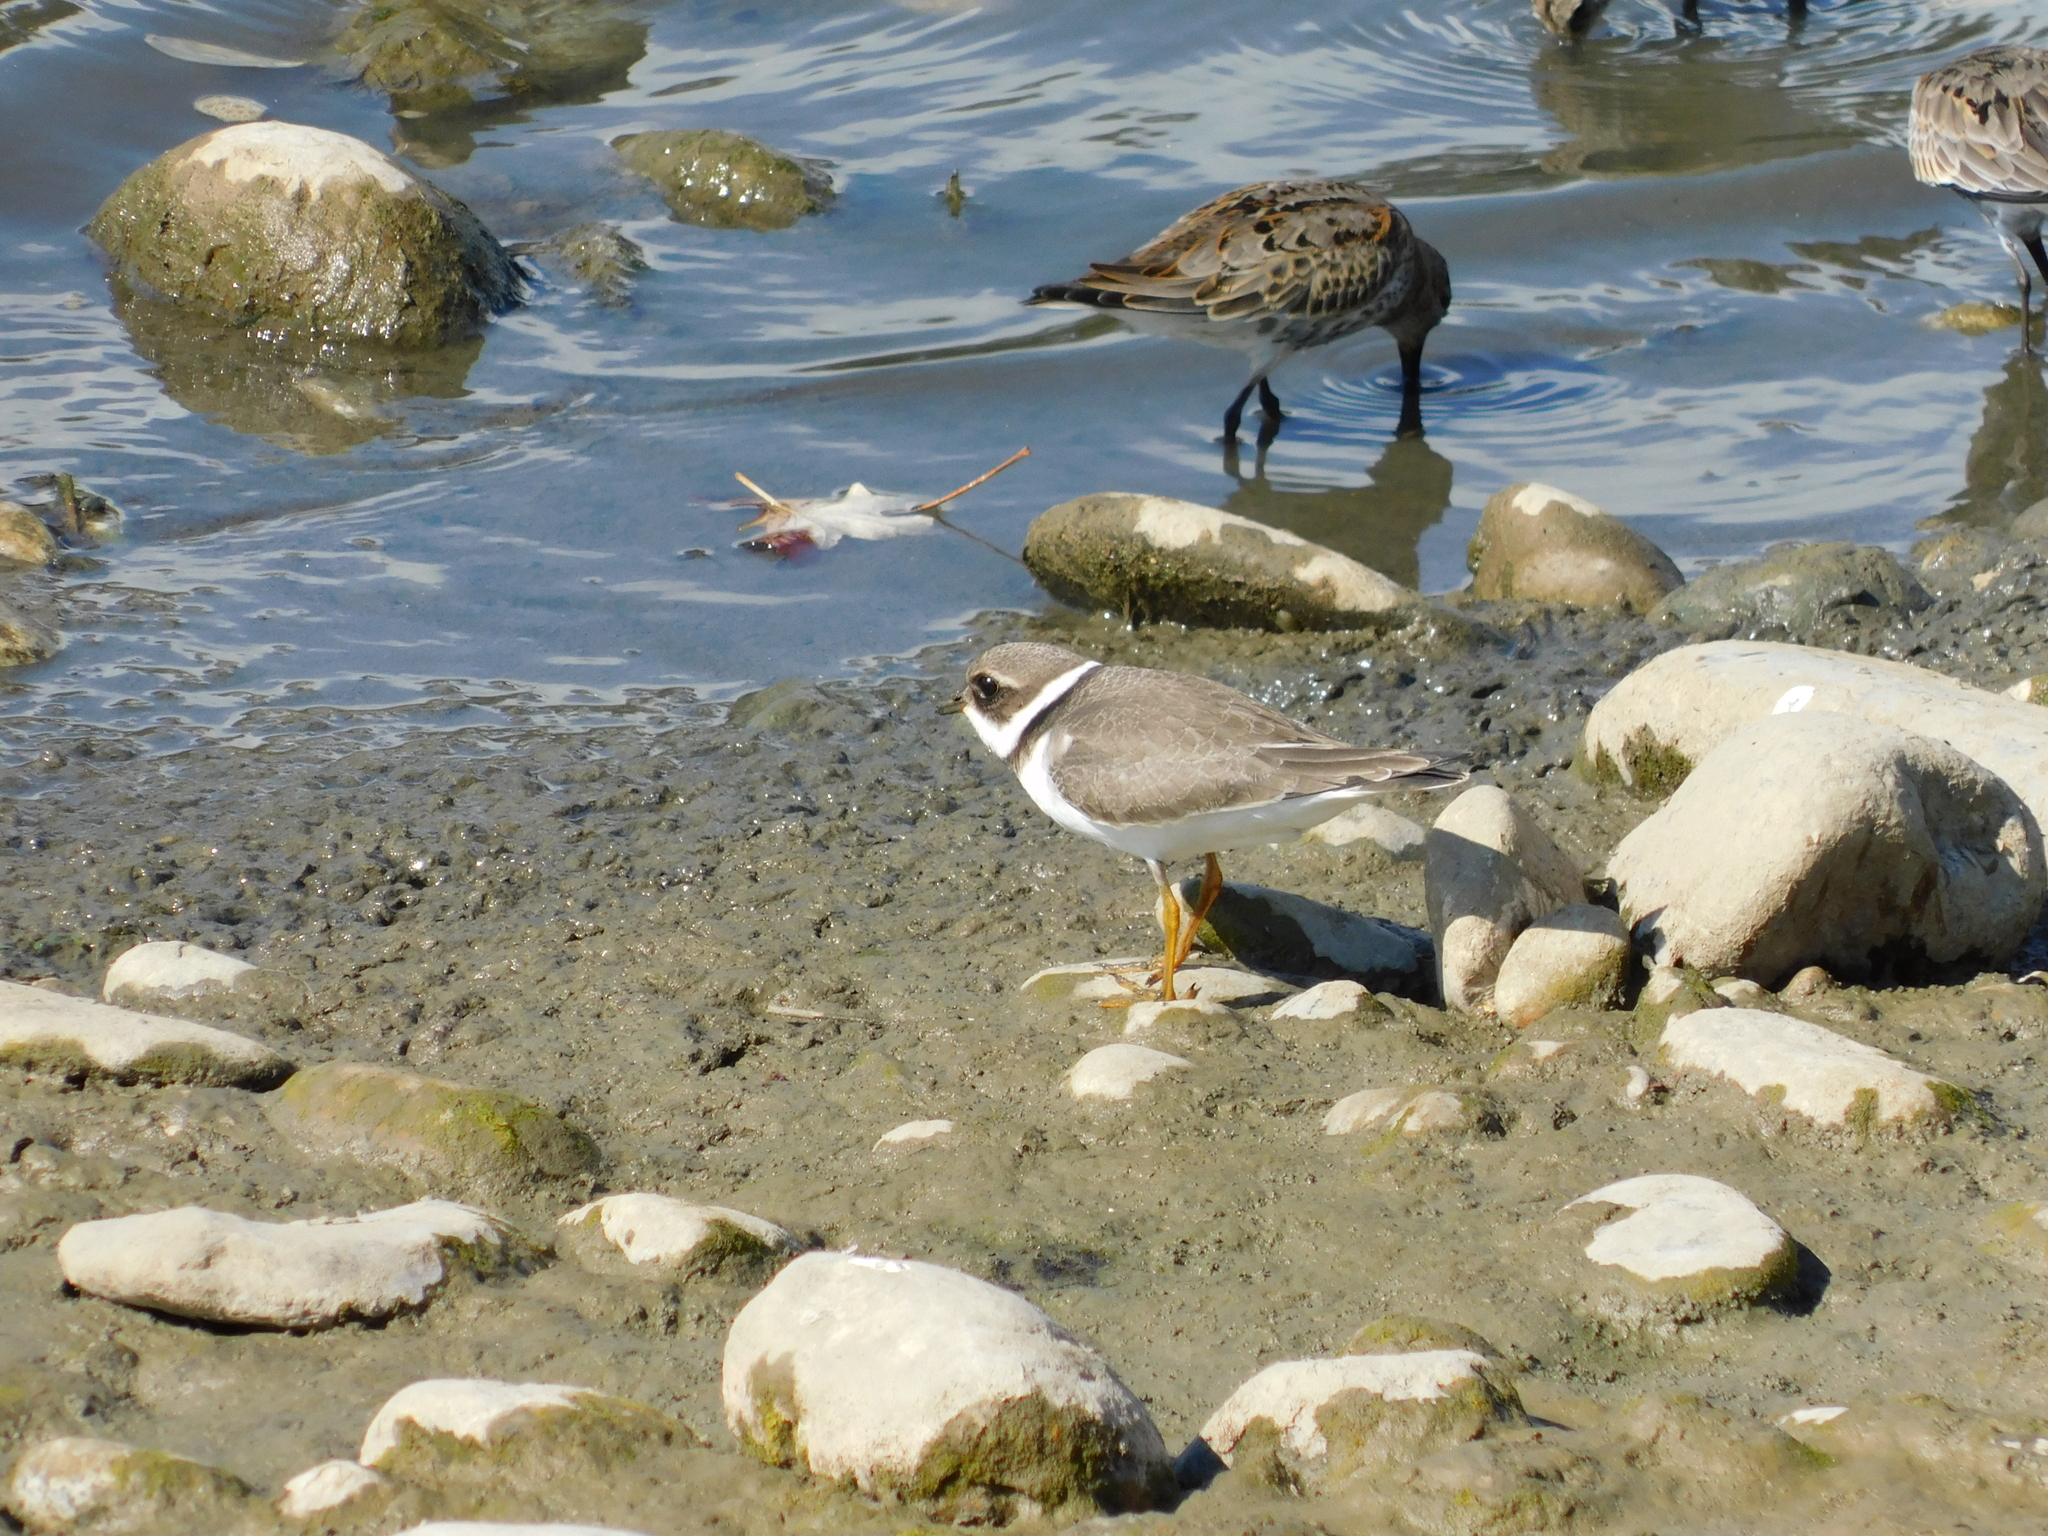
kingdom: Animalia
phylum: Chordata
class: Aves
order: Charadriiformes
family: Scolopacidae
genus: Calidris
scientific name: Calidris alpina
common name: Dunlin
